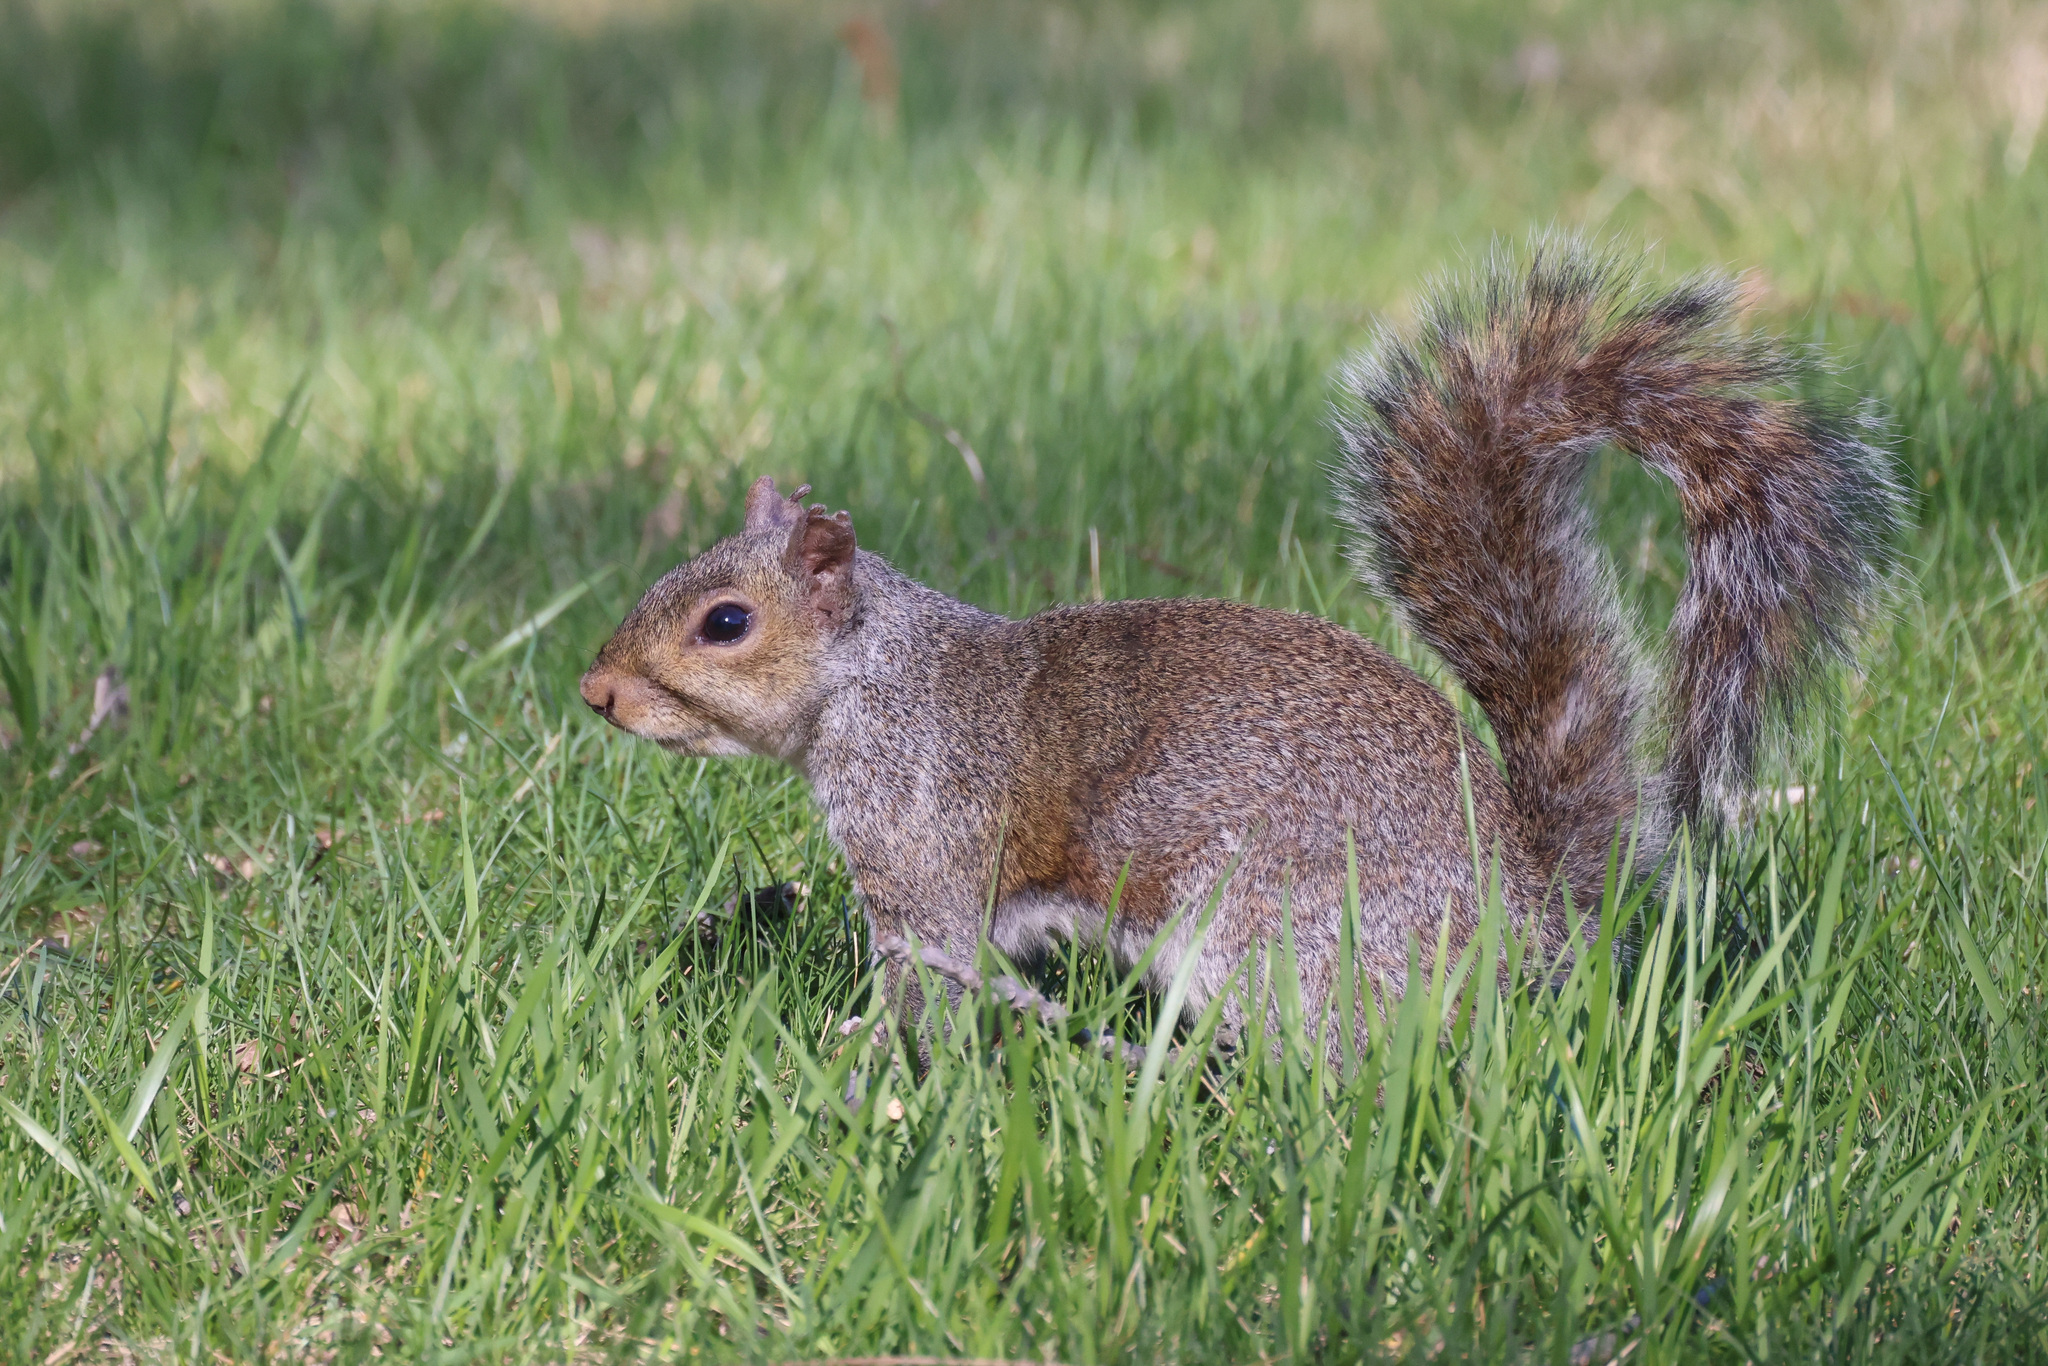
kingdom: Animalia
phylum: Chordata
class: Mammalia
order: Rodentia
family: Sciuridae
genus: Sciurus
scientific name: Sciurus carolinensis
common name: Eastern gray squirrel
